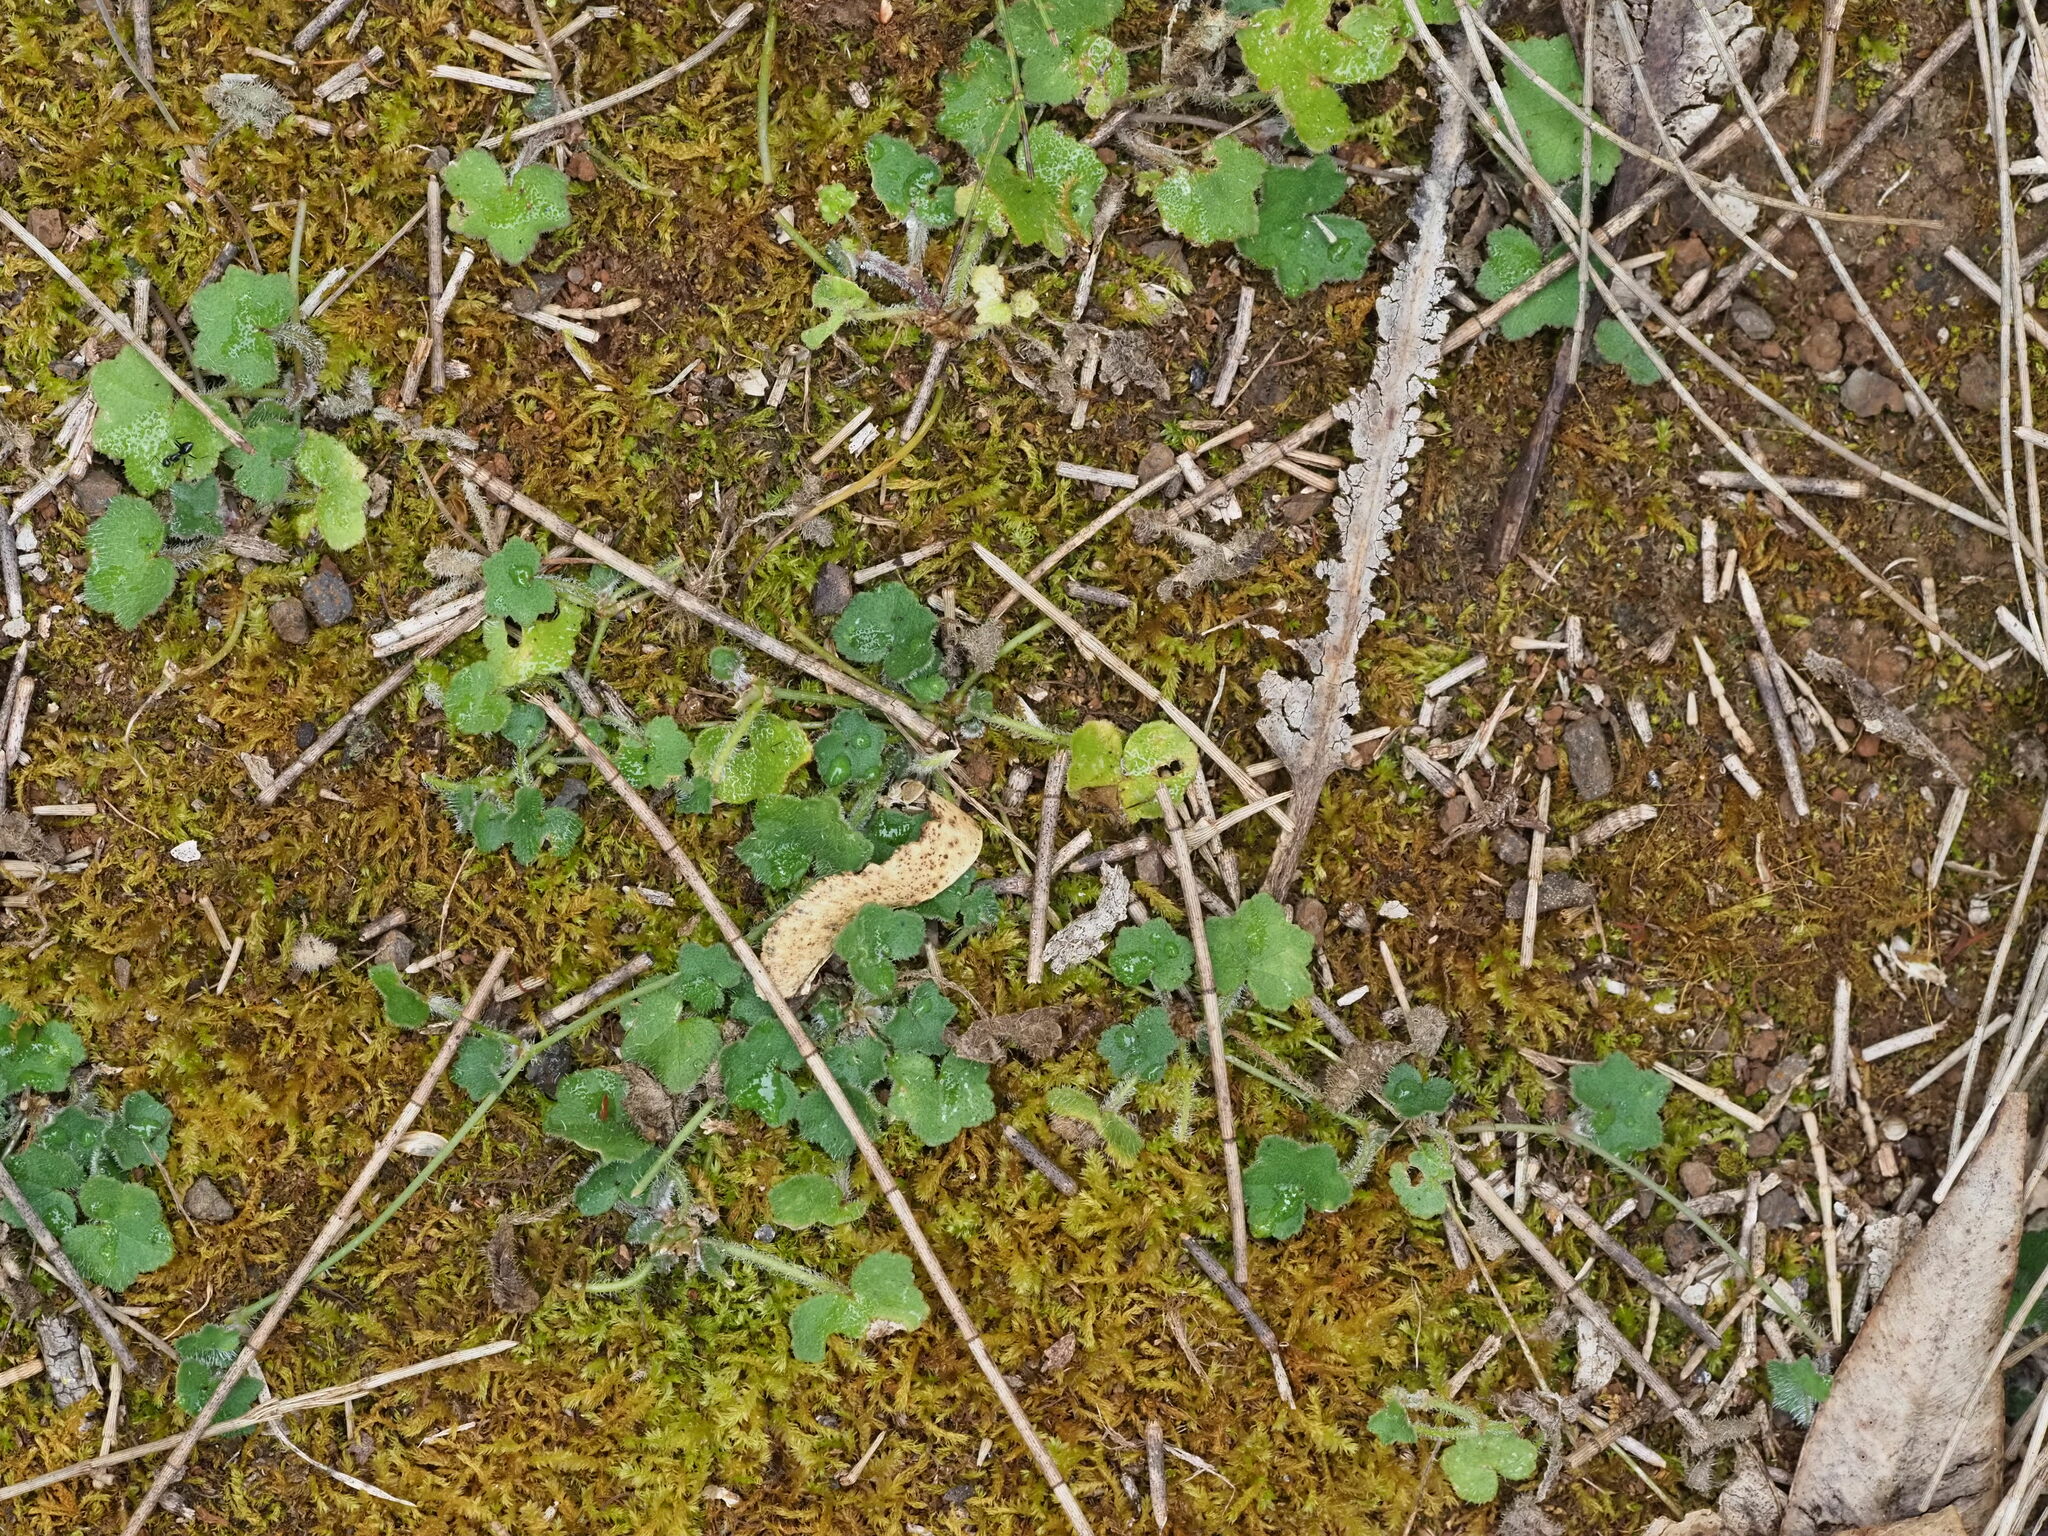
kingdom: Plantae
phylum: Tracheophyta
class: Magnoliopsida
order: Apiales
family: Araliaceae
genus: Hydrocotyle
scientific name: Hydrocotyle bowlesioides
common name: Largeleaf marshpennywort
